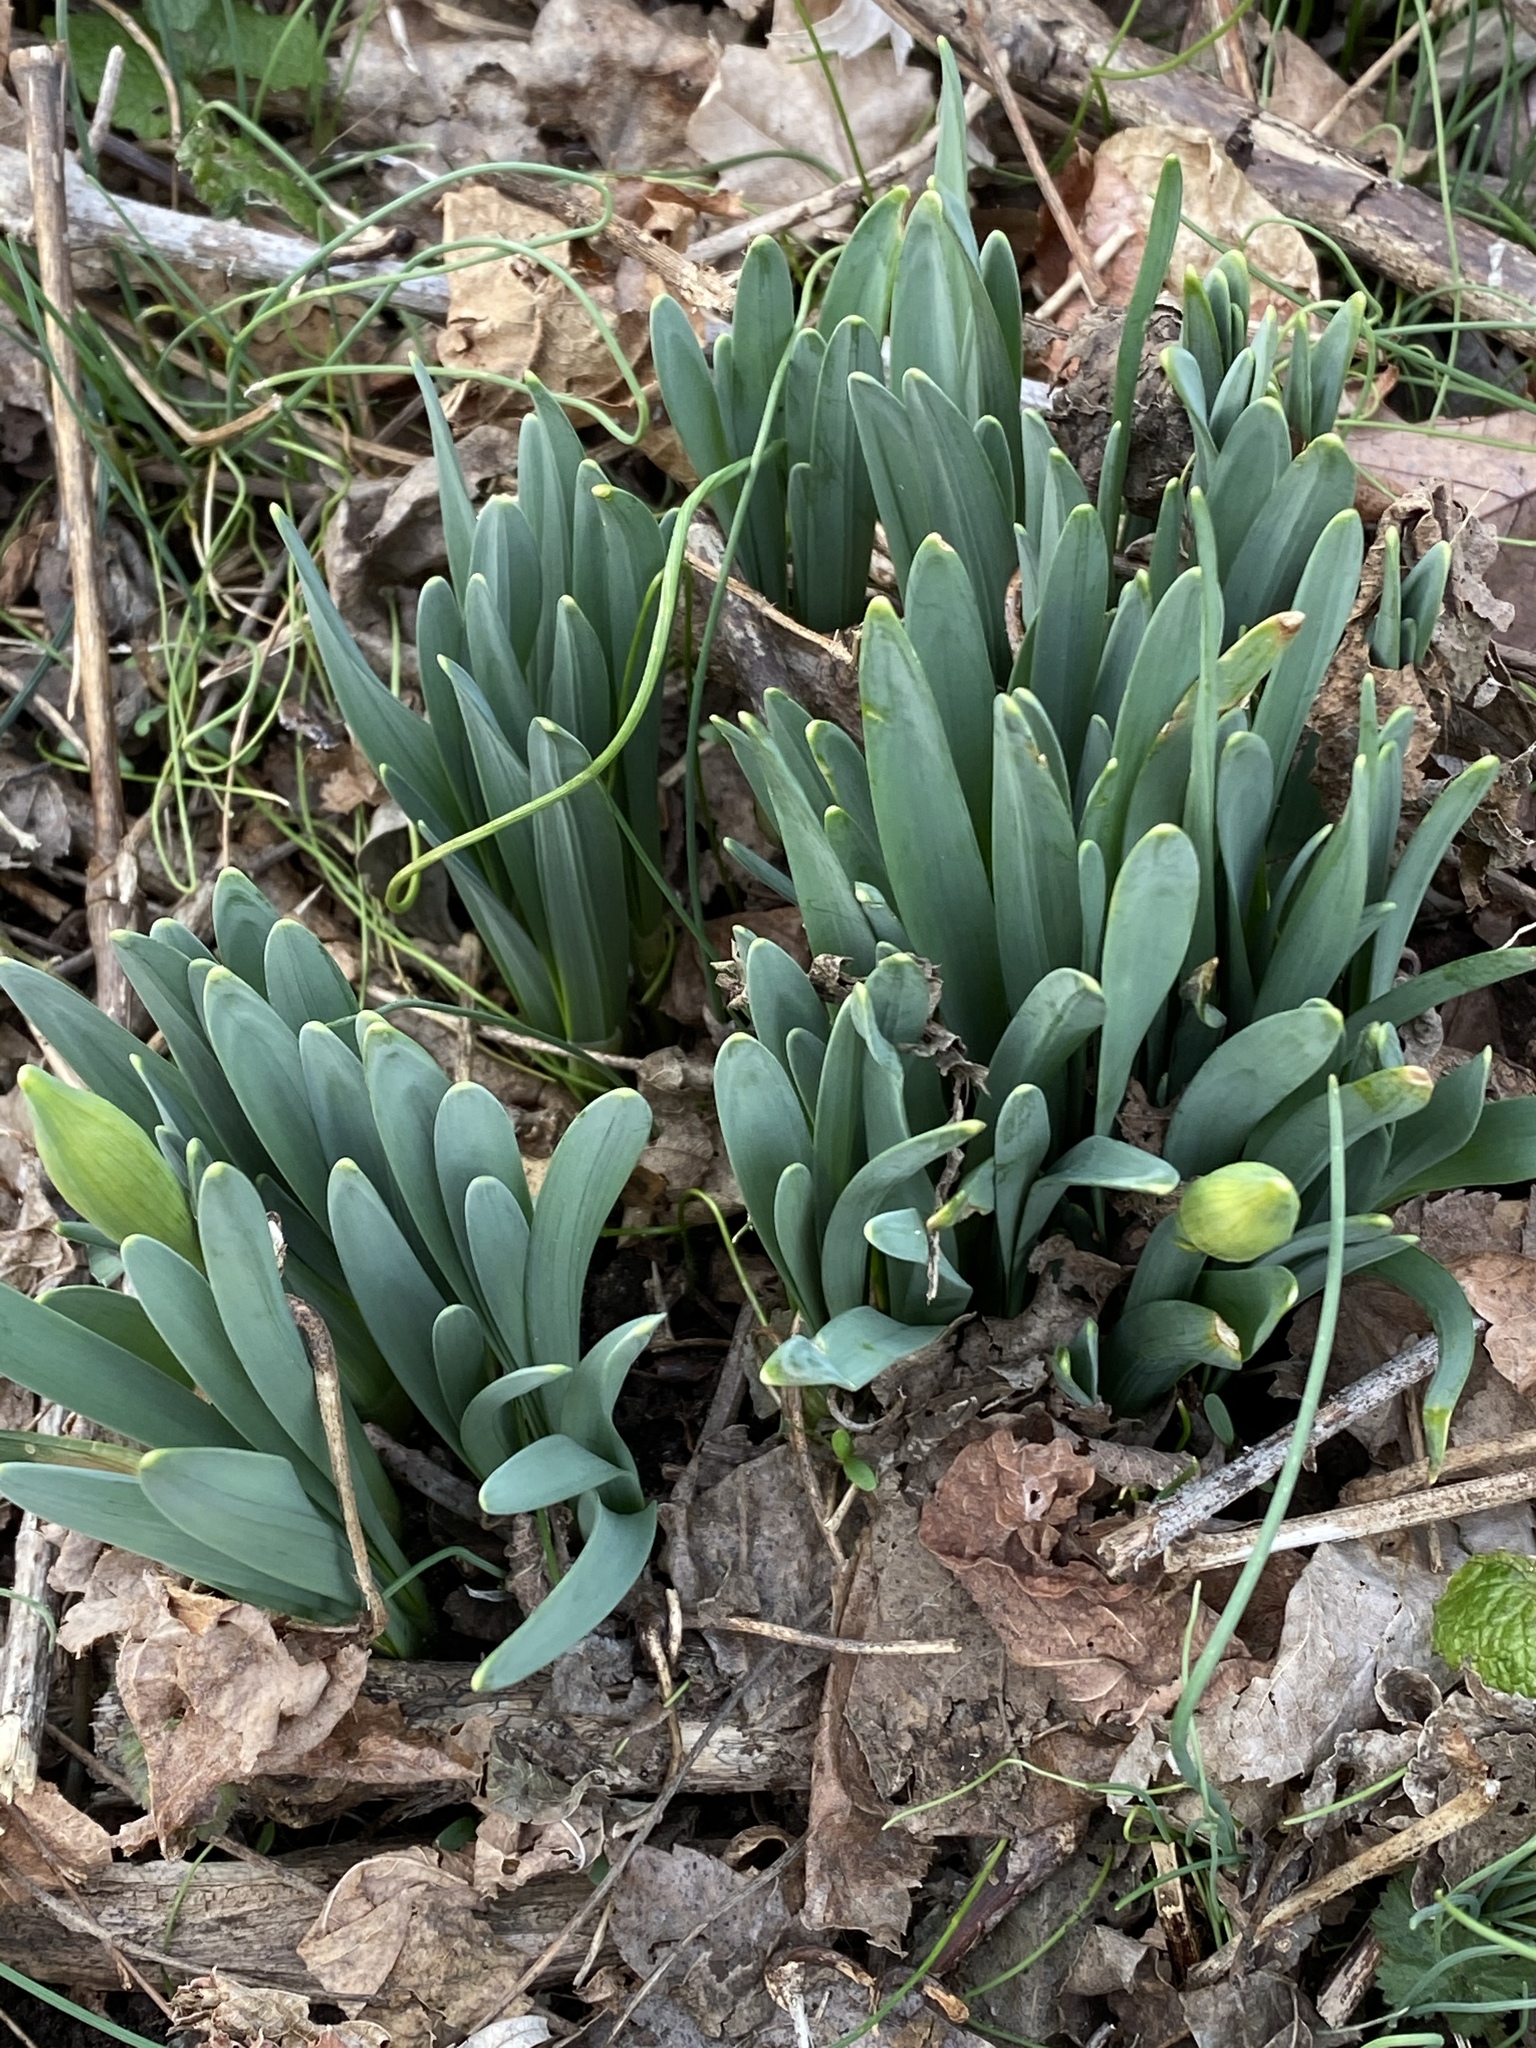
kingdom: Plantae
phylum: Tracheophyta
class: Liliopsida
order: Asparagales
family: Amaryllidaceae
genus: Narcissus
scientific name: Narcissus
